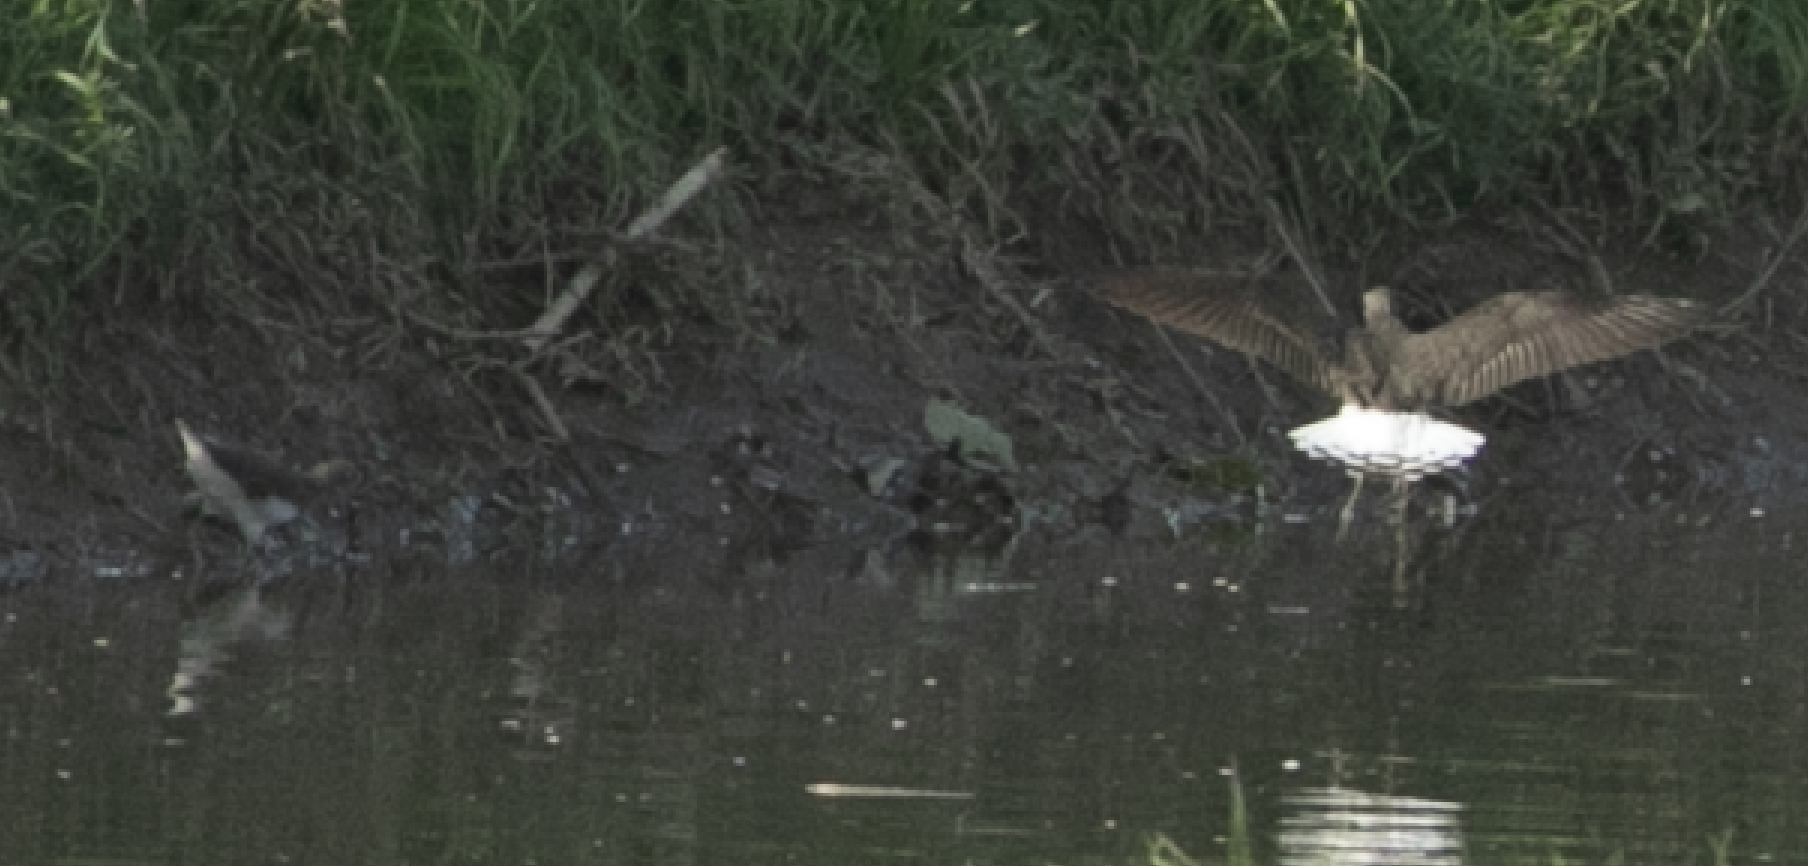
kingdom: Animalia
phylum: Chordata
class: Aves
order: Charadriiformes
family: Scolopacidae
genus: Tringa
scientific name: Tringa ochropus
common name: Green sandpiper
